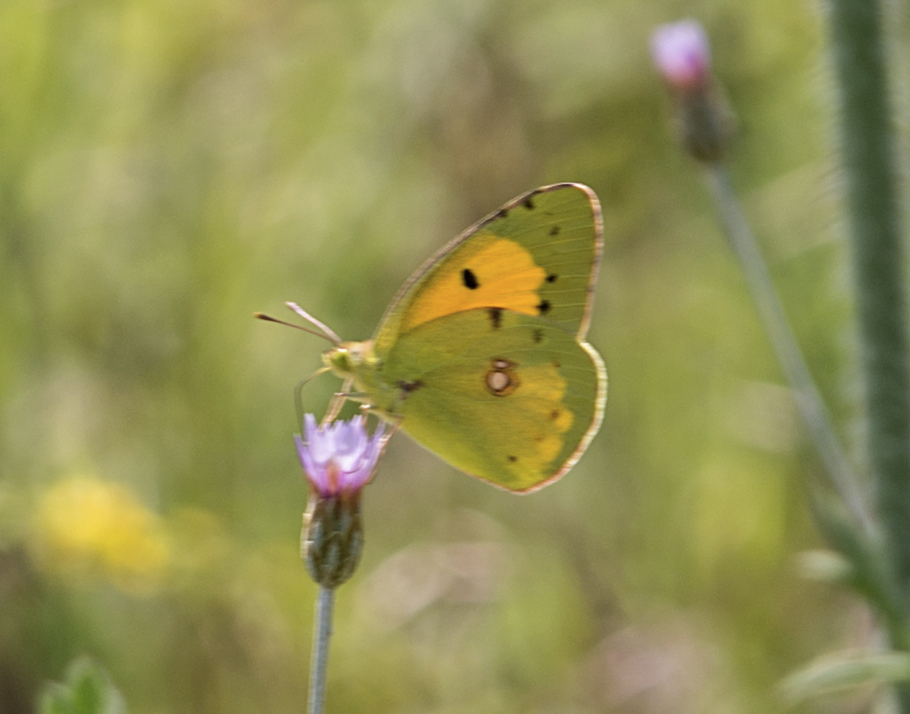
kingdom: Animalia
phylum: Arthropoda
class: Insecta
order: Lepidoptera
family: Pieridae
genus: Colias
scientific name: Colias croceus
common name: Clouded yellow
